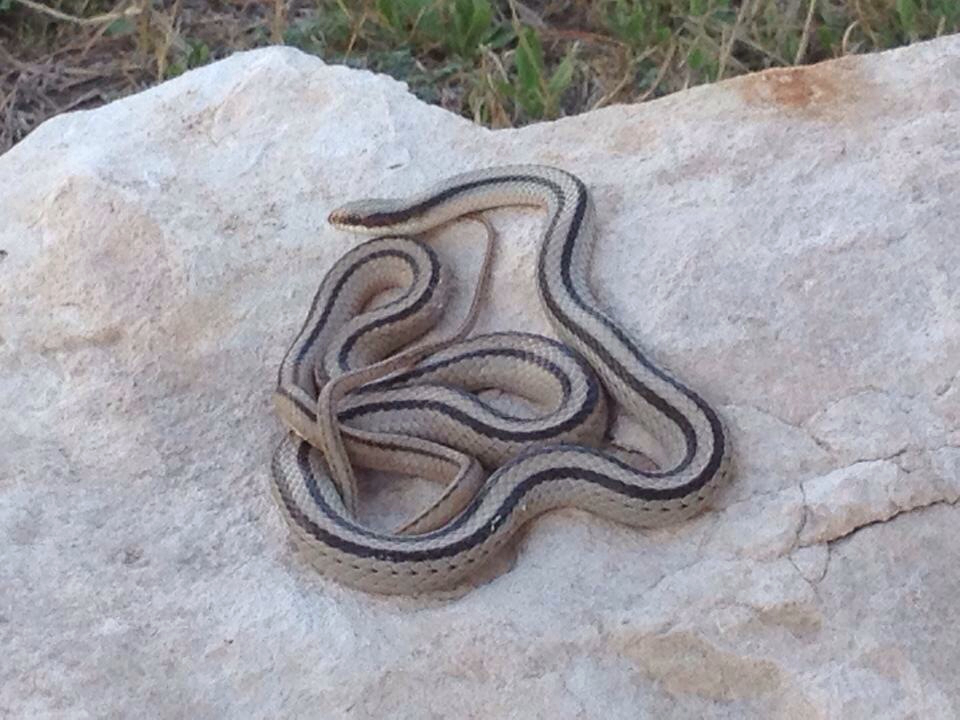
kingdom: Animalia
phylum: Chordata
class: Squamata
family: Colubridae
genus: Salvadora
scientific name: Salvadora grahamiae
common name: Mountain patchnose snake
